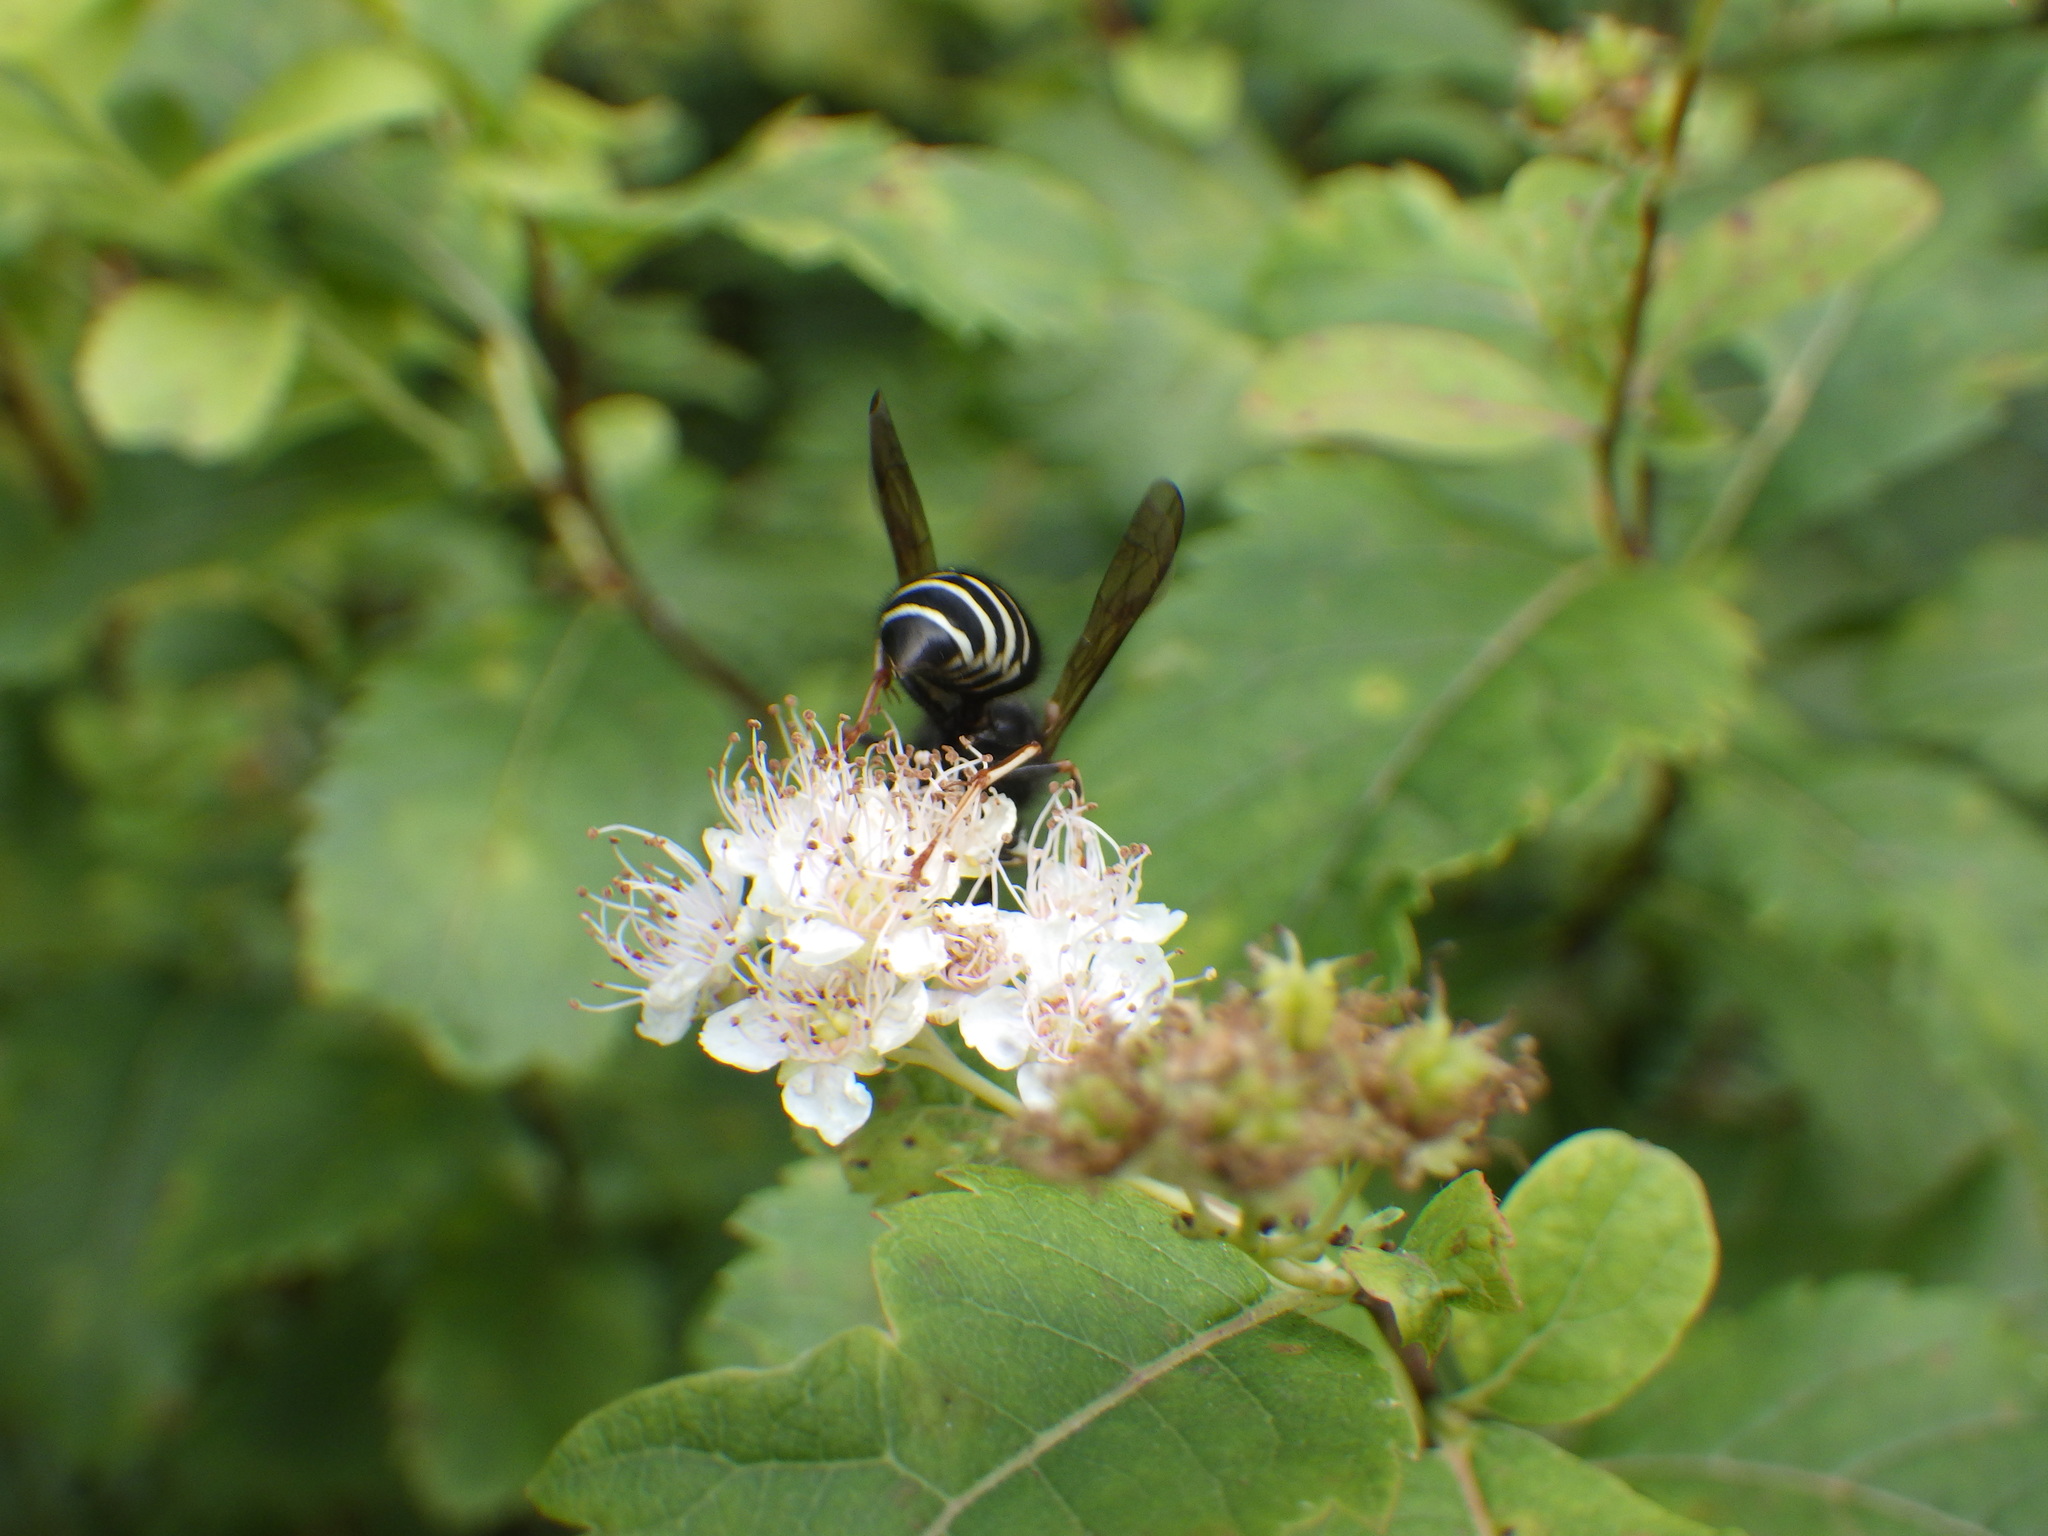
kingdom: Animalia
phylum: Arthropoda
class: Insecta
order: Hymenoptera
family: Vespidae
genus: Vespula
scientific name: Vespula consobrina
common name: Blackjacket
